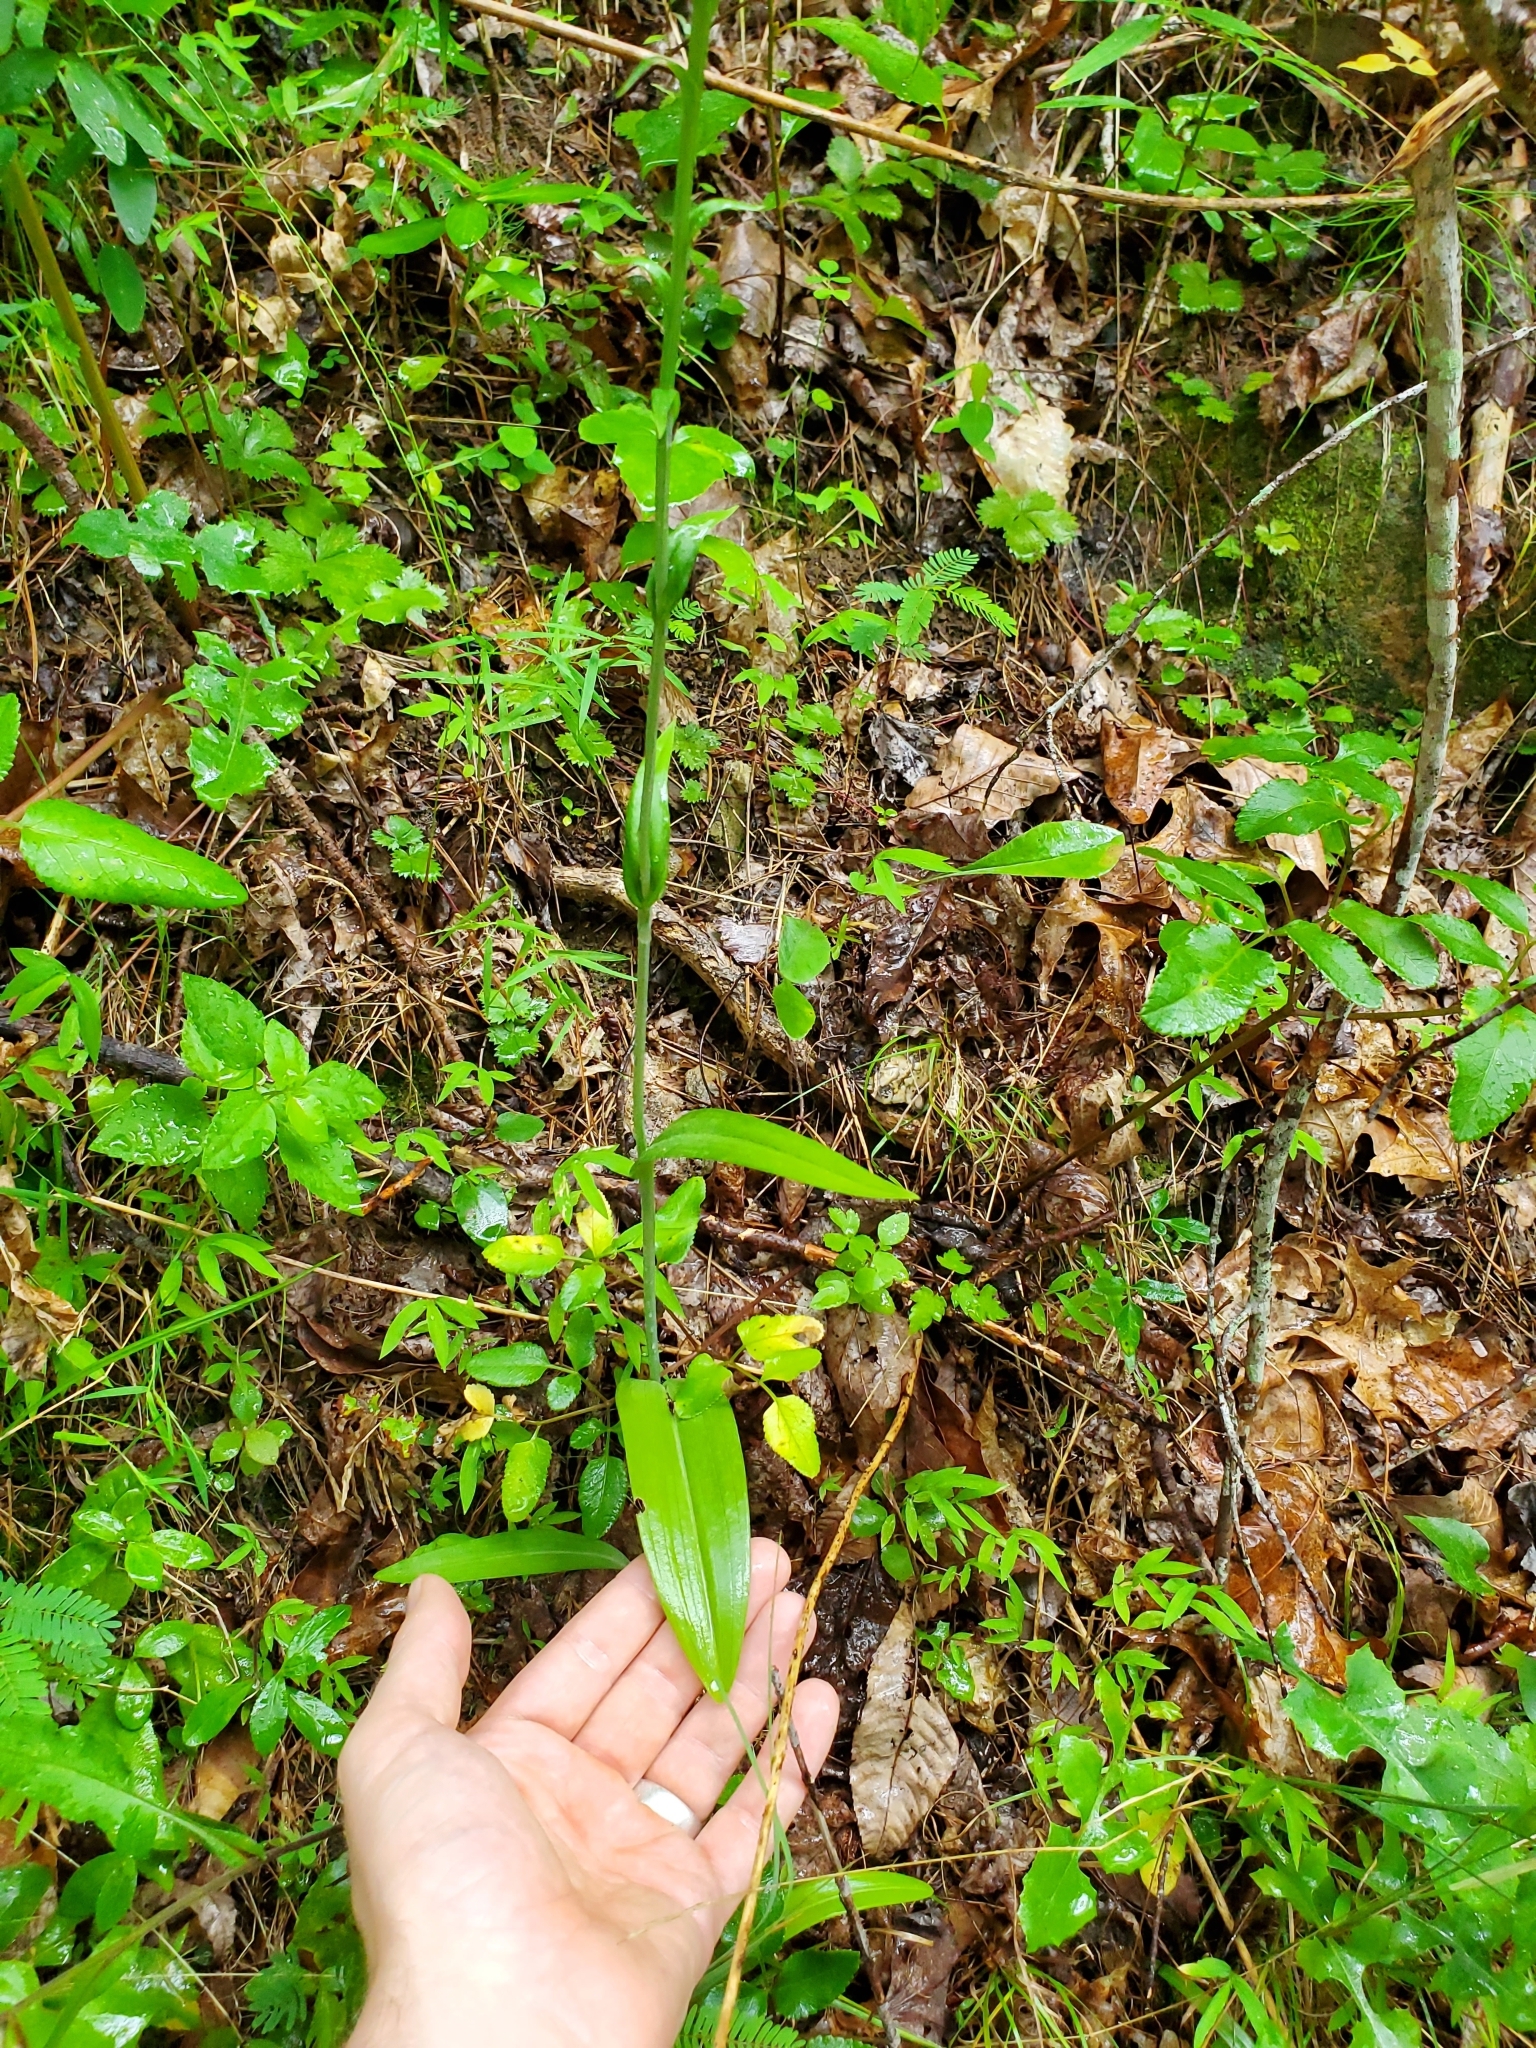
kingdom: Plantae
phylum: Tracheophyta
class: Liliopsida
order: Asparagales
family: Orchidaceae
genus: Platanthera
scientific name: Platanthera ciliaris
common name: Yellow fringed orchid
